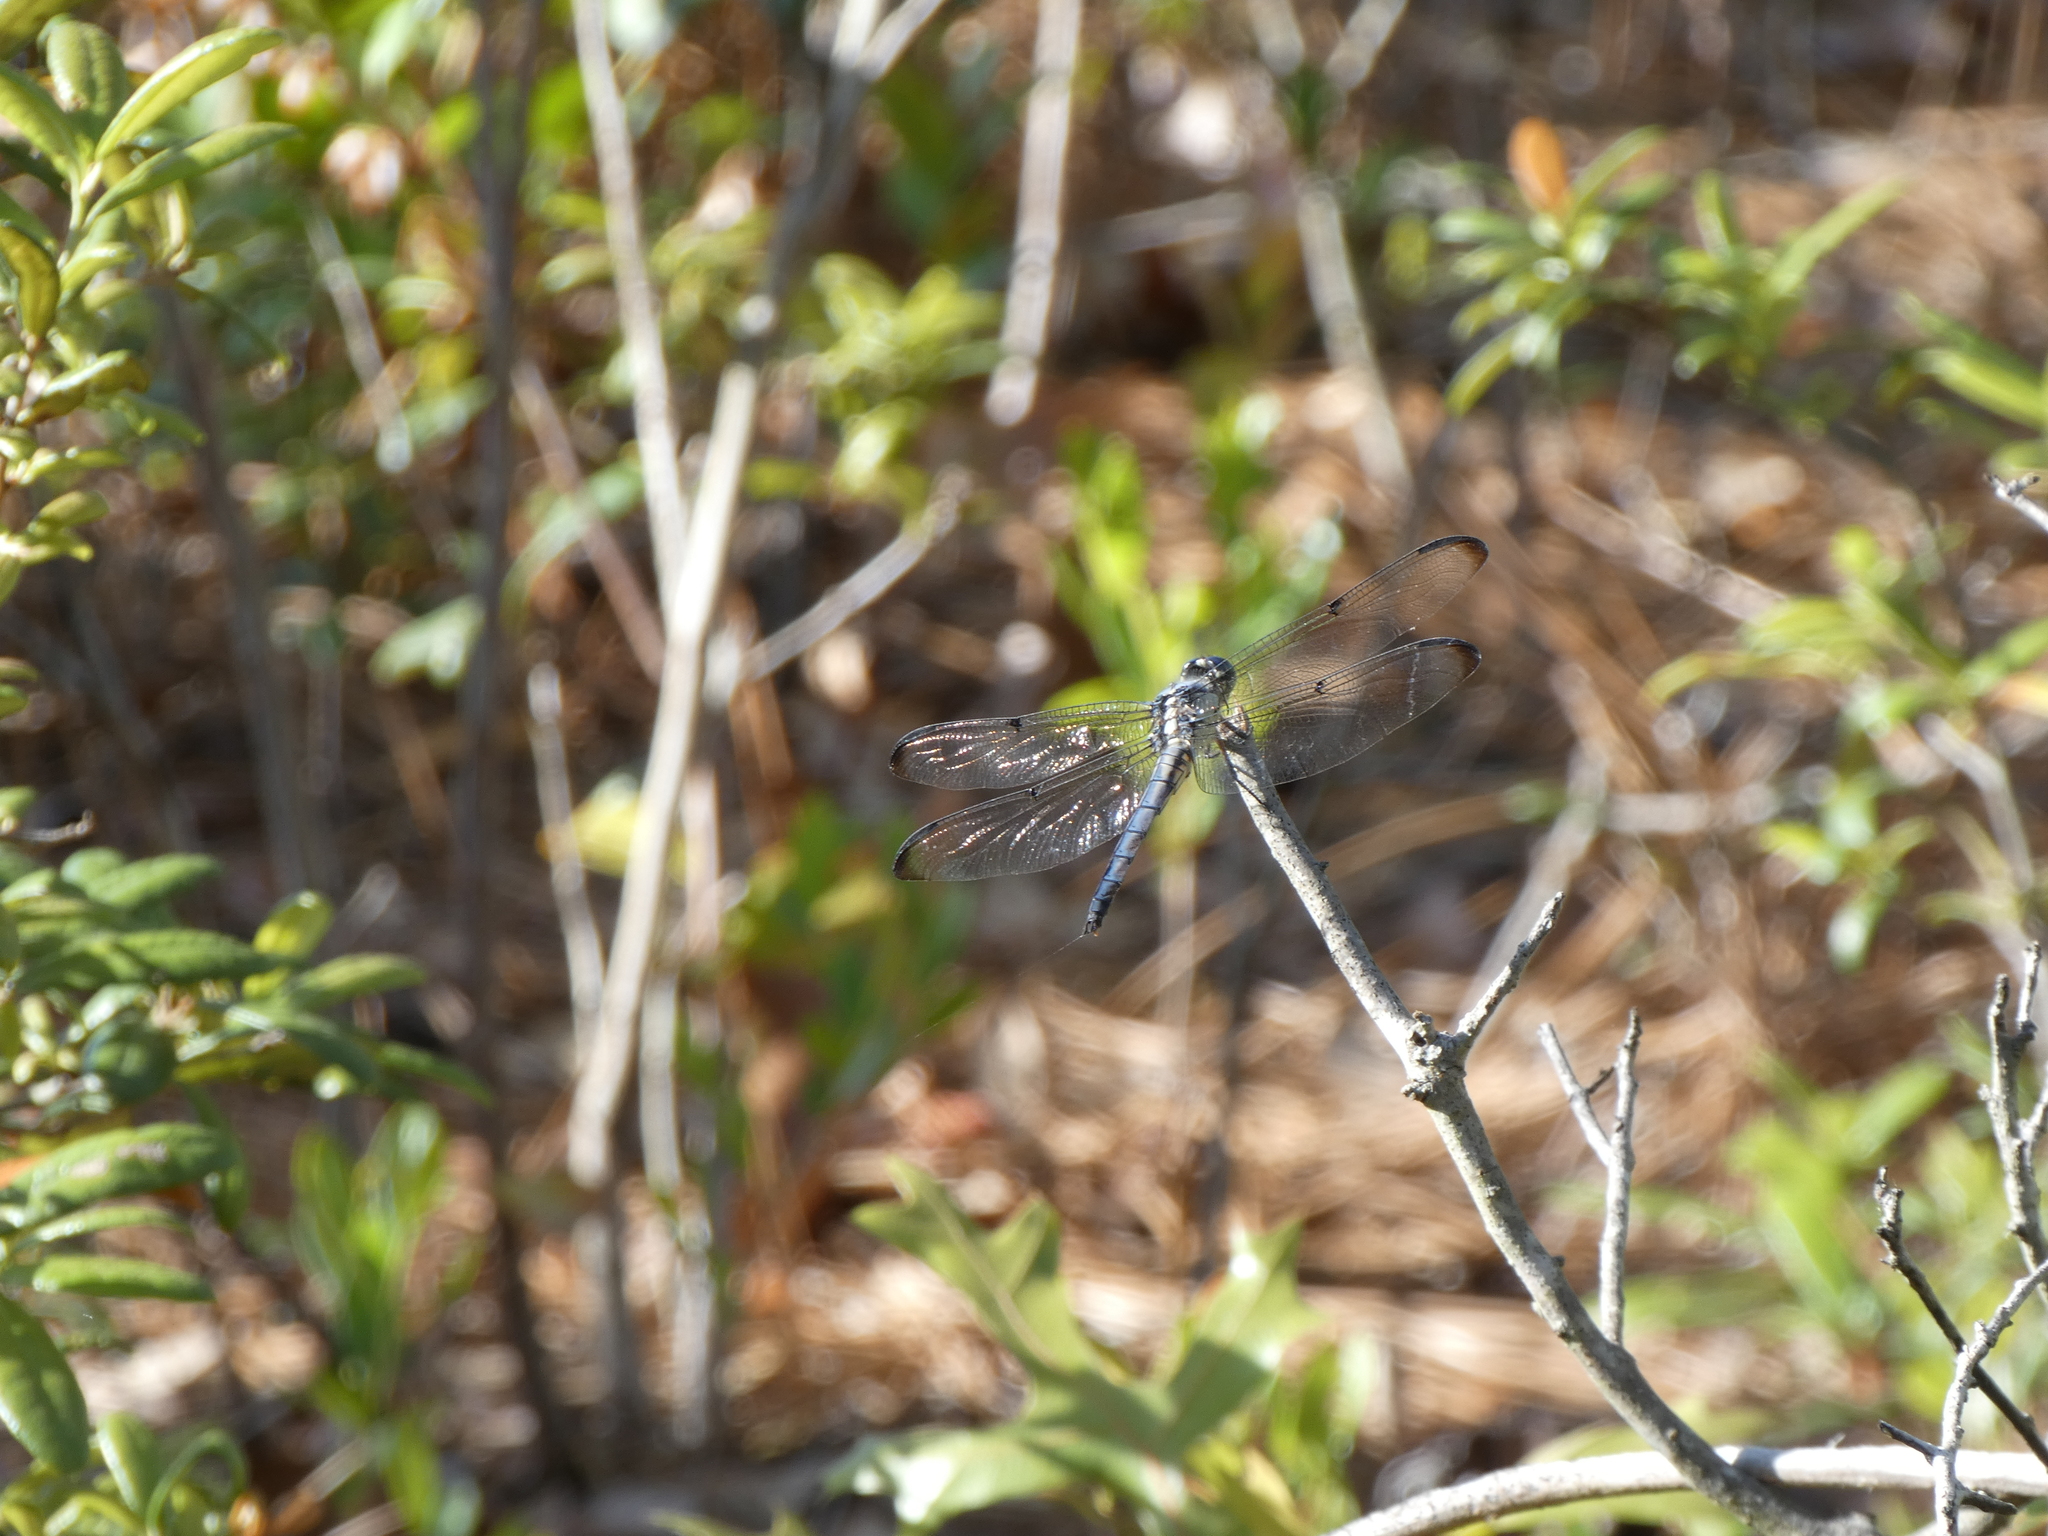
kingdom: Animalia
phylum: Arthropoda
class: Insecta
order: Odonata
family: Libellulidae
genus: Libellula
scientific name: Libellula vibrans
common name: Great blue skimmer
